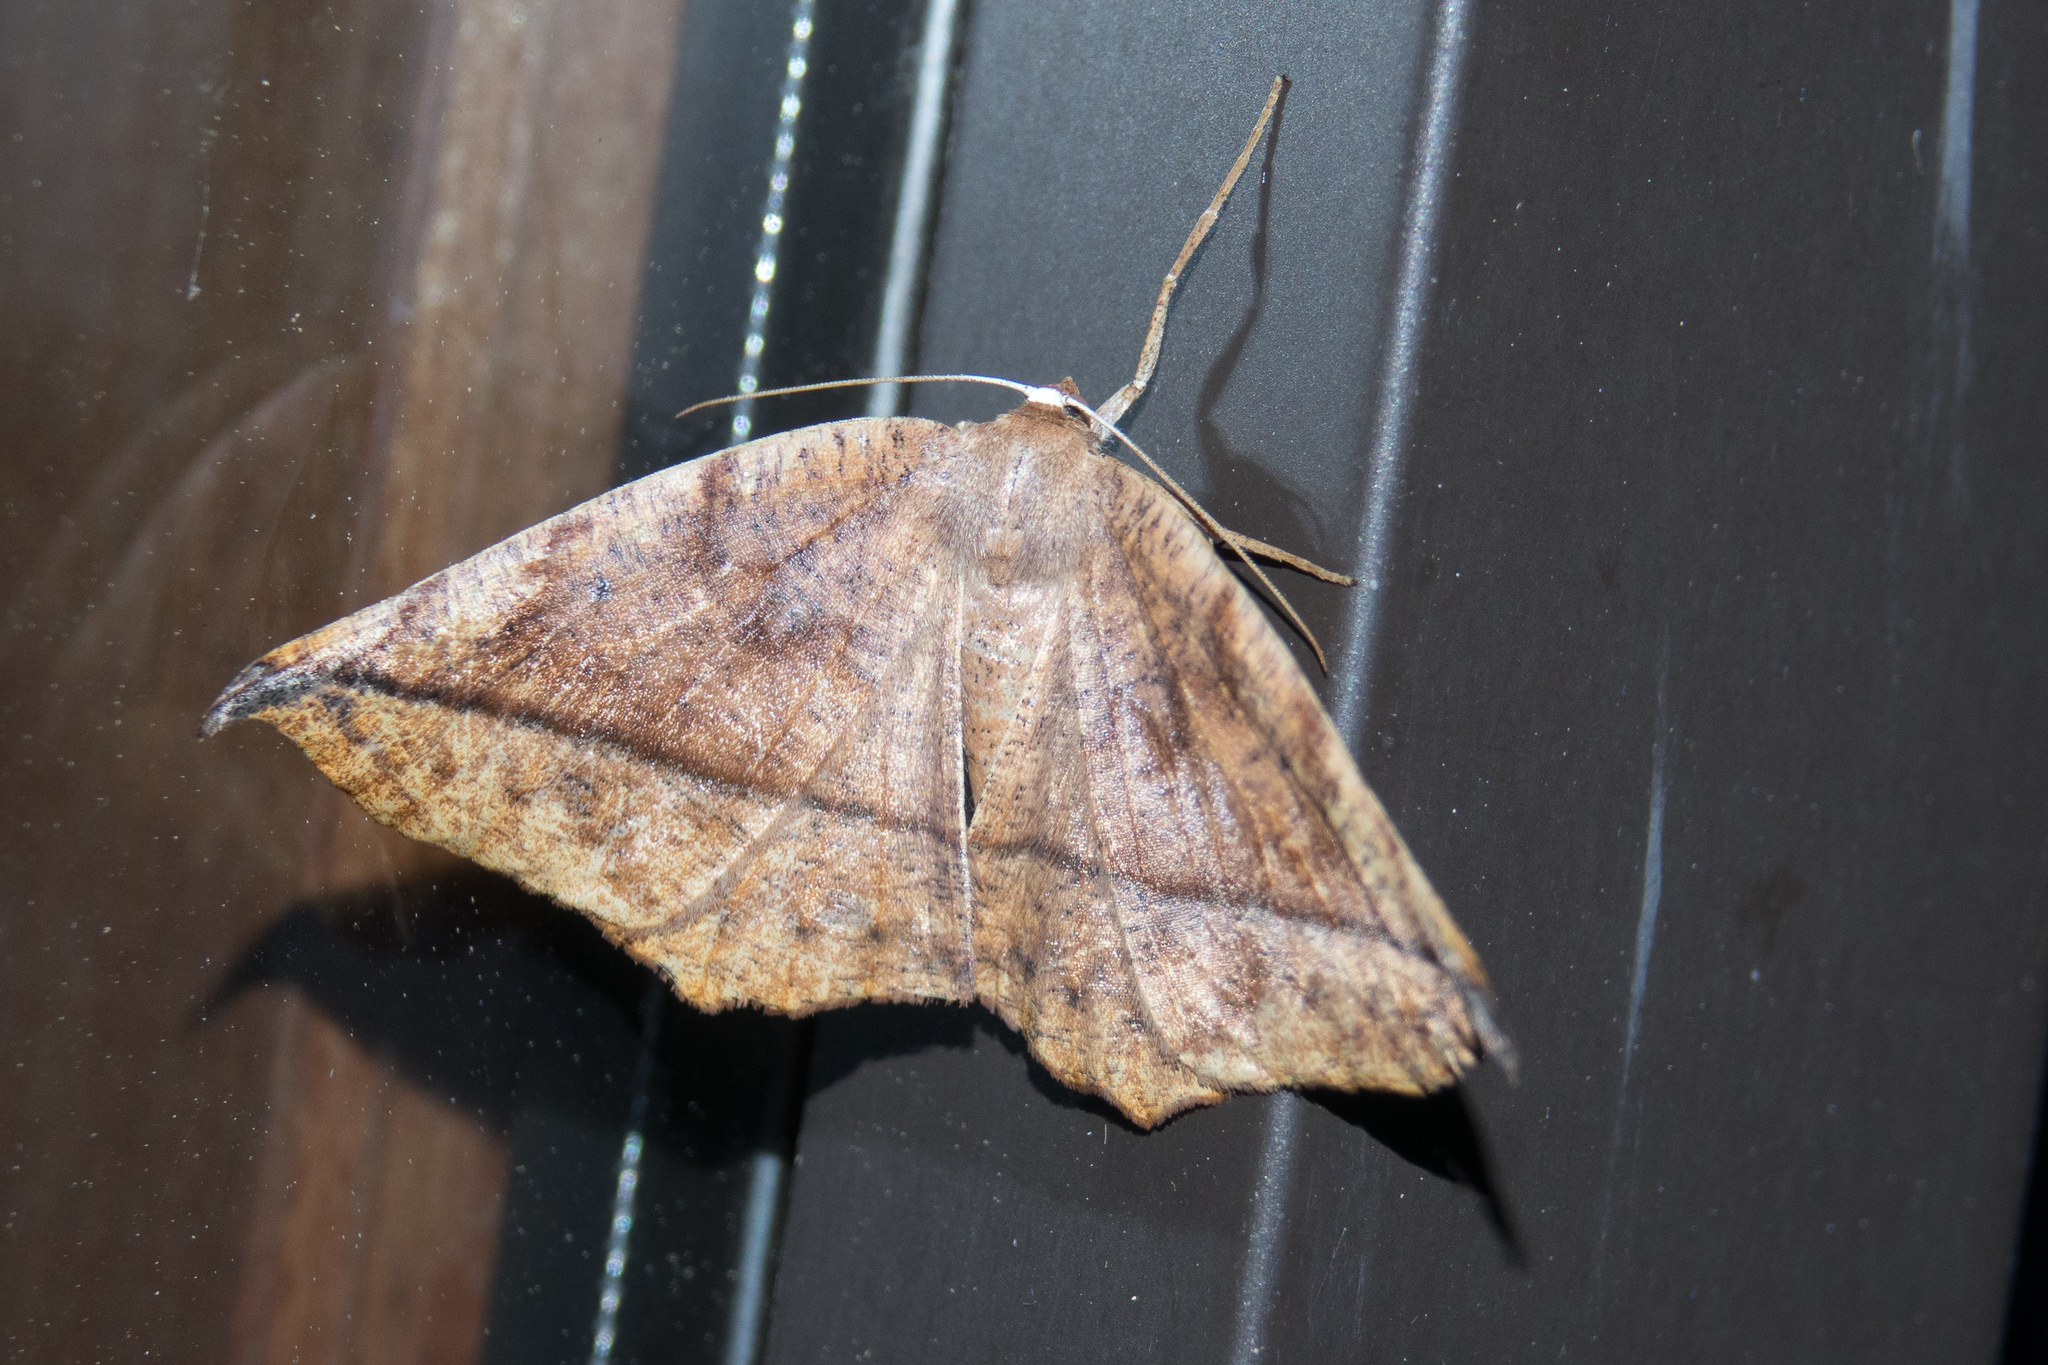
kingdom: Animalia
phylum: Arthropoda
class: Insecta
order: Lepidoptera
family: Geometridae
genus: Eutrapela
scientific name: Eutrapela clemataria
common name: Curved-toothed geometer
